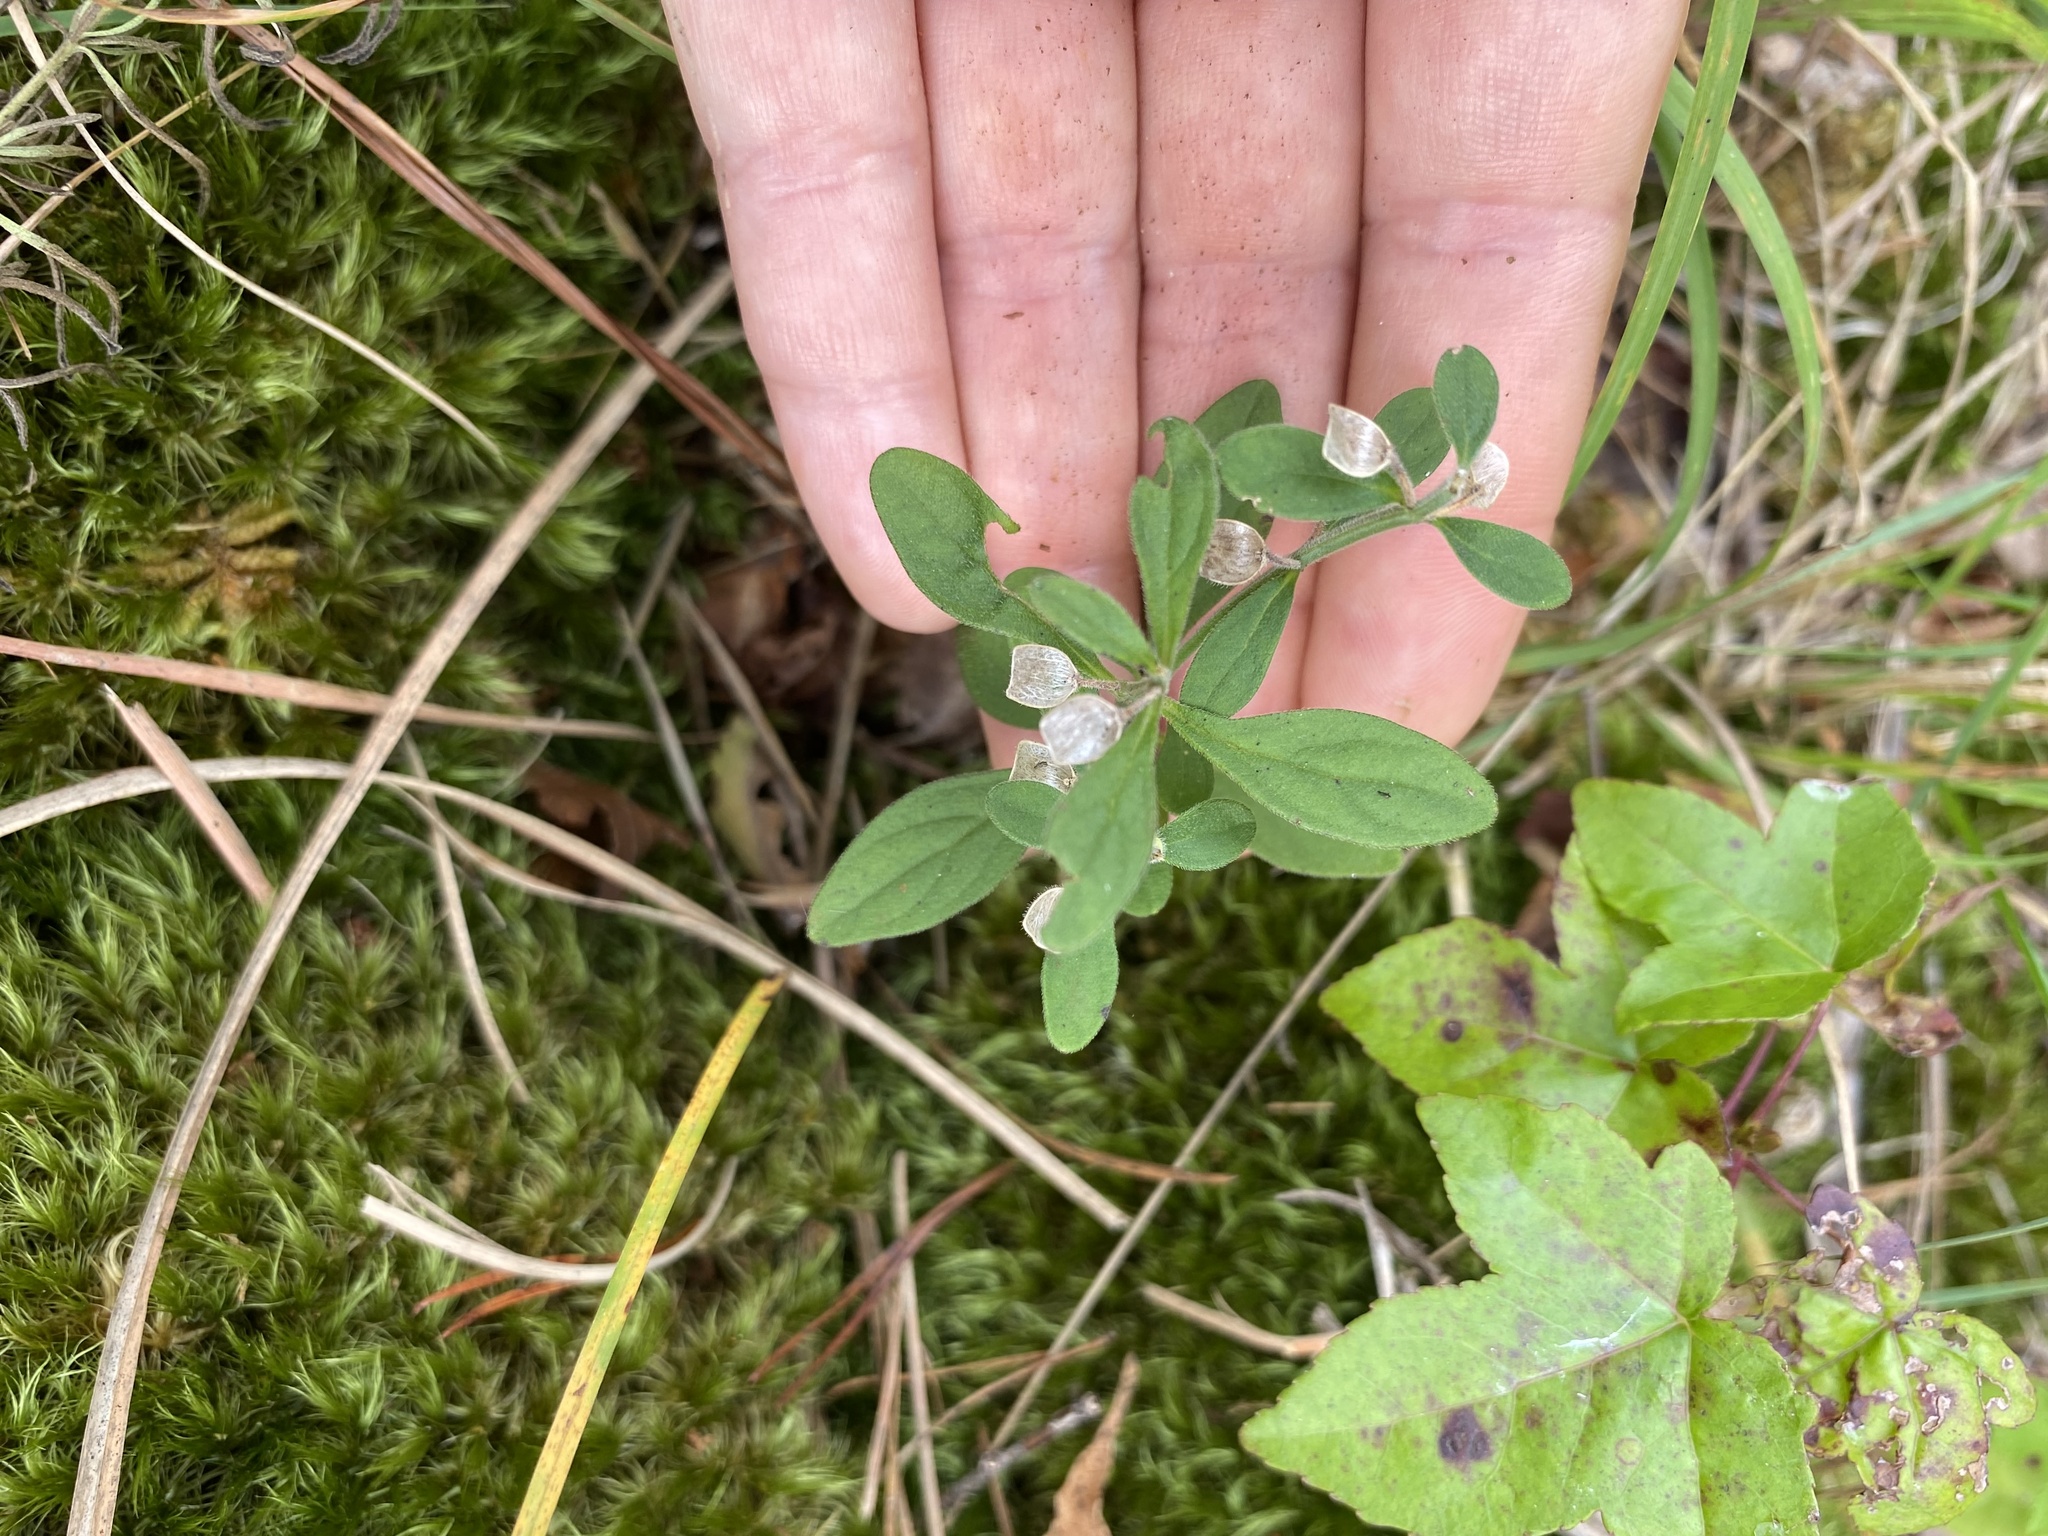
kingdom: Plantae
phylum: Tracheophyta
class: Magnoliopsida
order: Lamiales
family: Lamiaceae
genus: Scutellaria
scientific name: Scutellaria integrifolia
